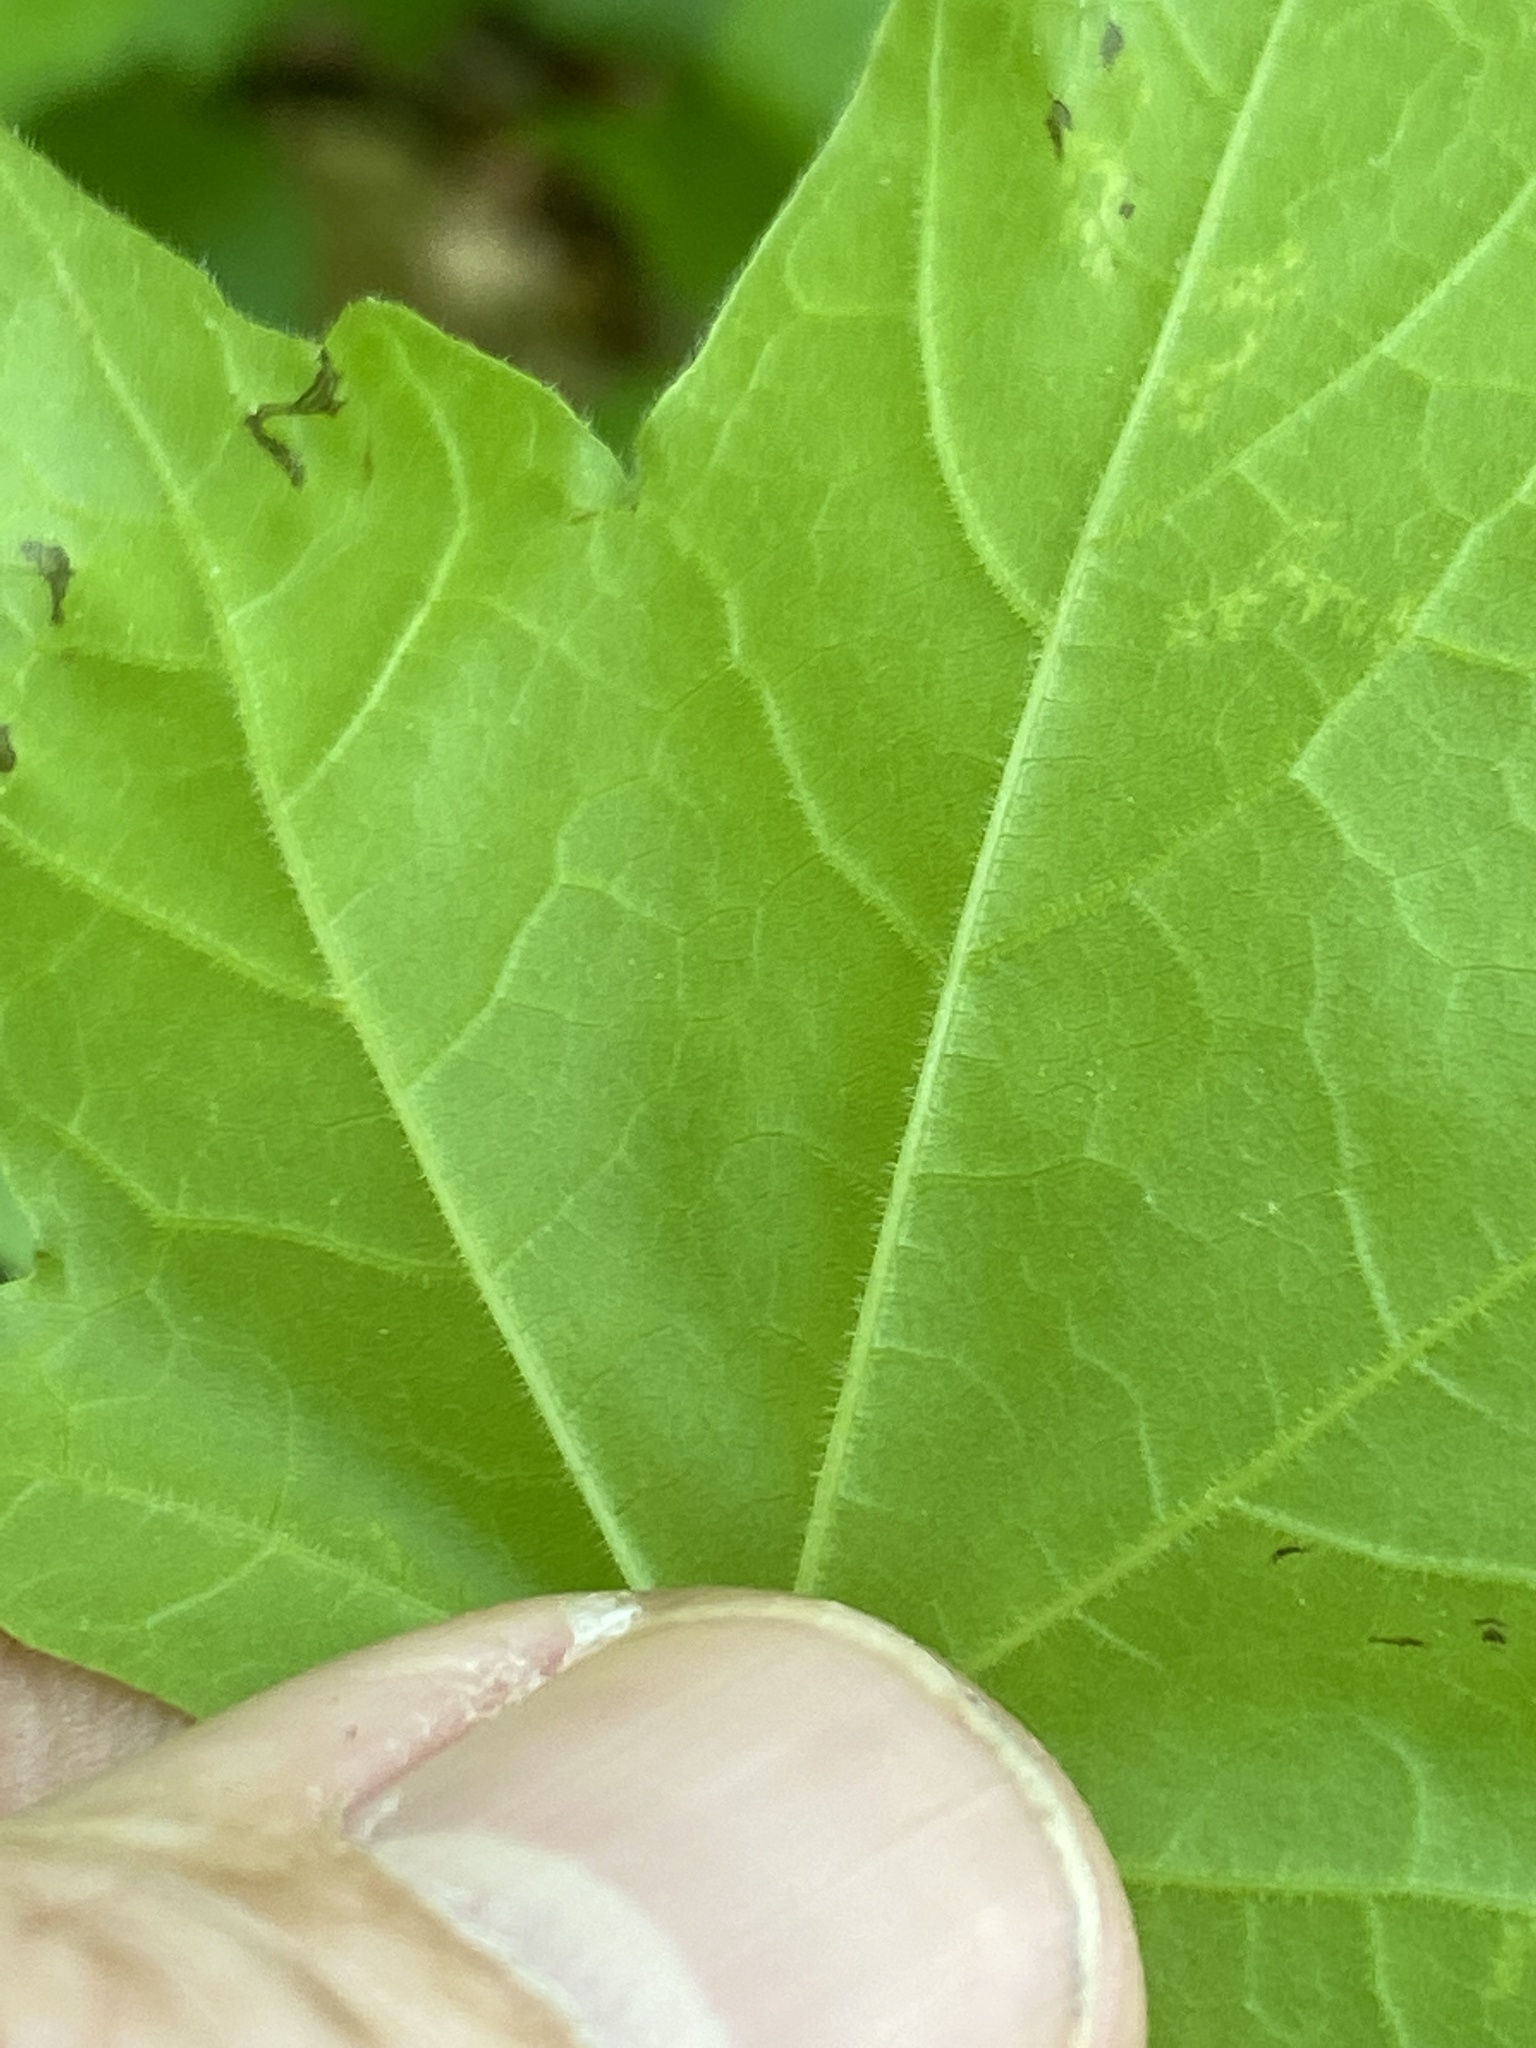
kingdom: Plantae
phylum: Tracheophyta
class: Magnoliopsida
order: Sapindales
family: Sapindaceae
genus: Acer
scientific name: Acer leucoderme
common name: Chalk maple
